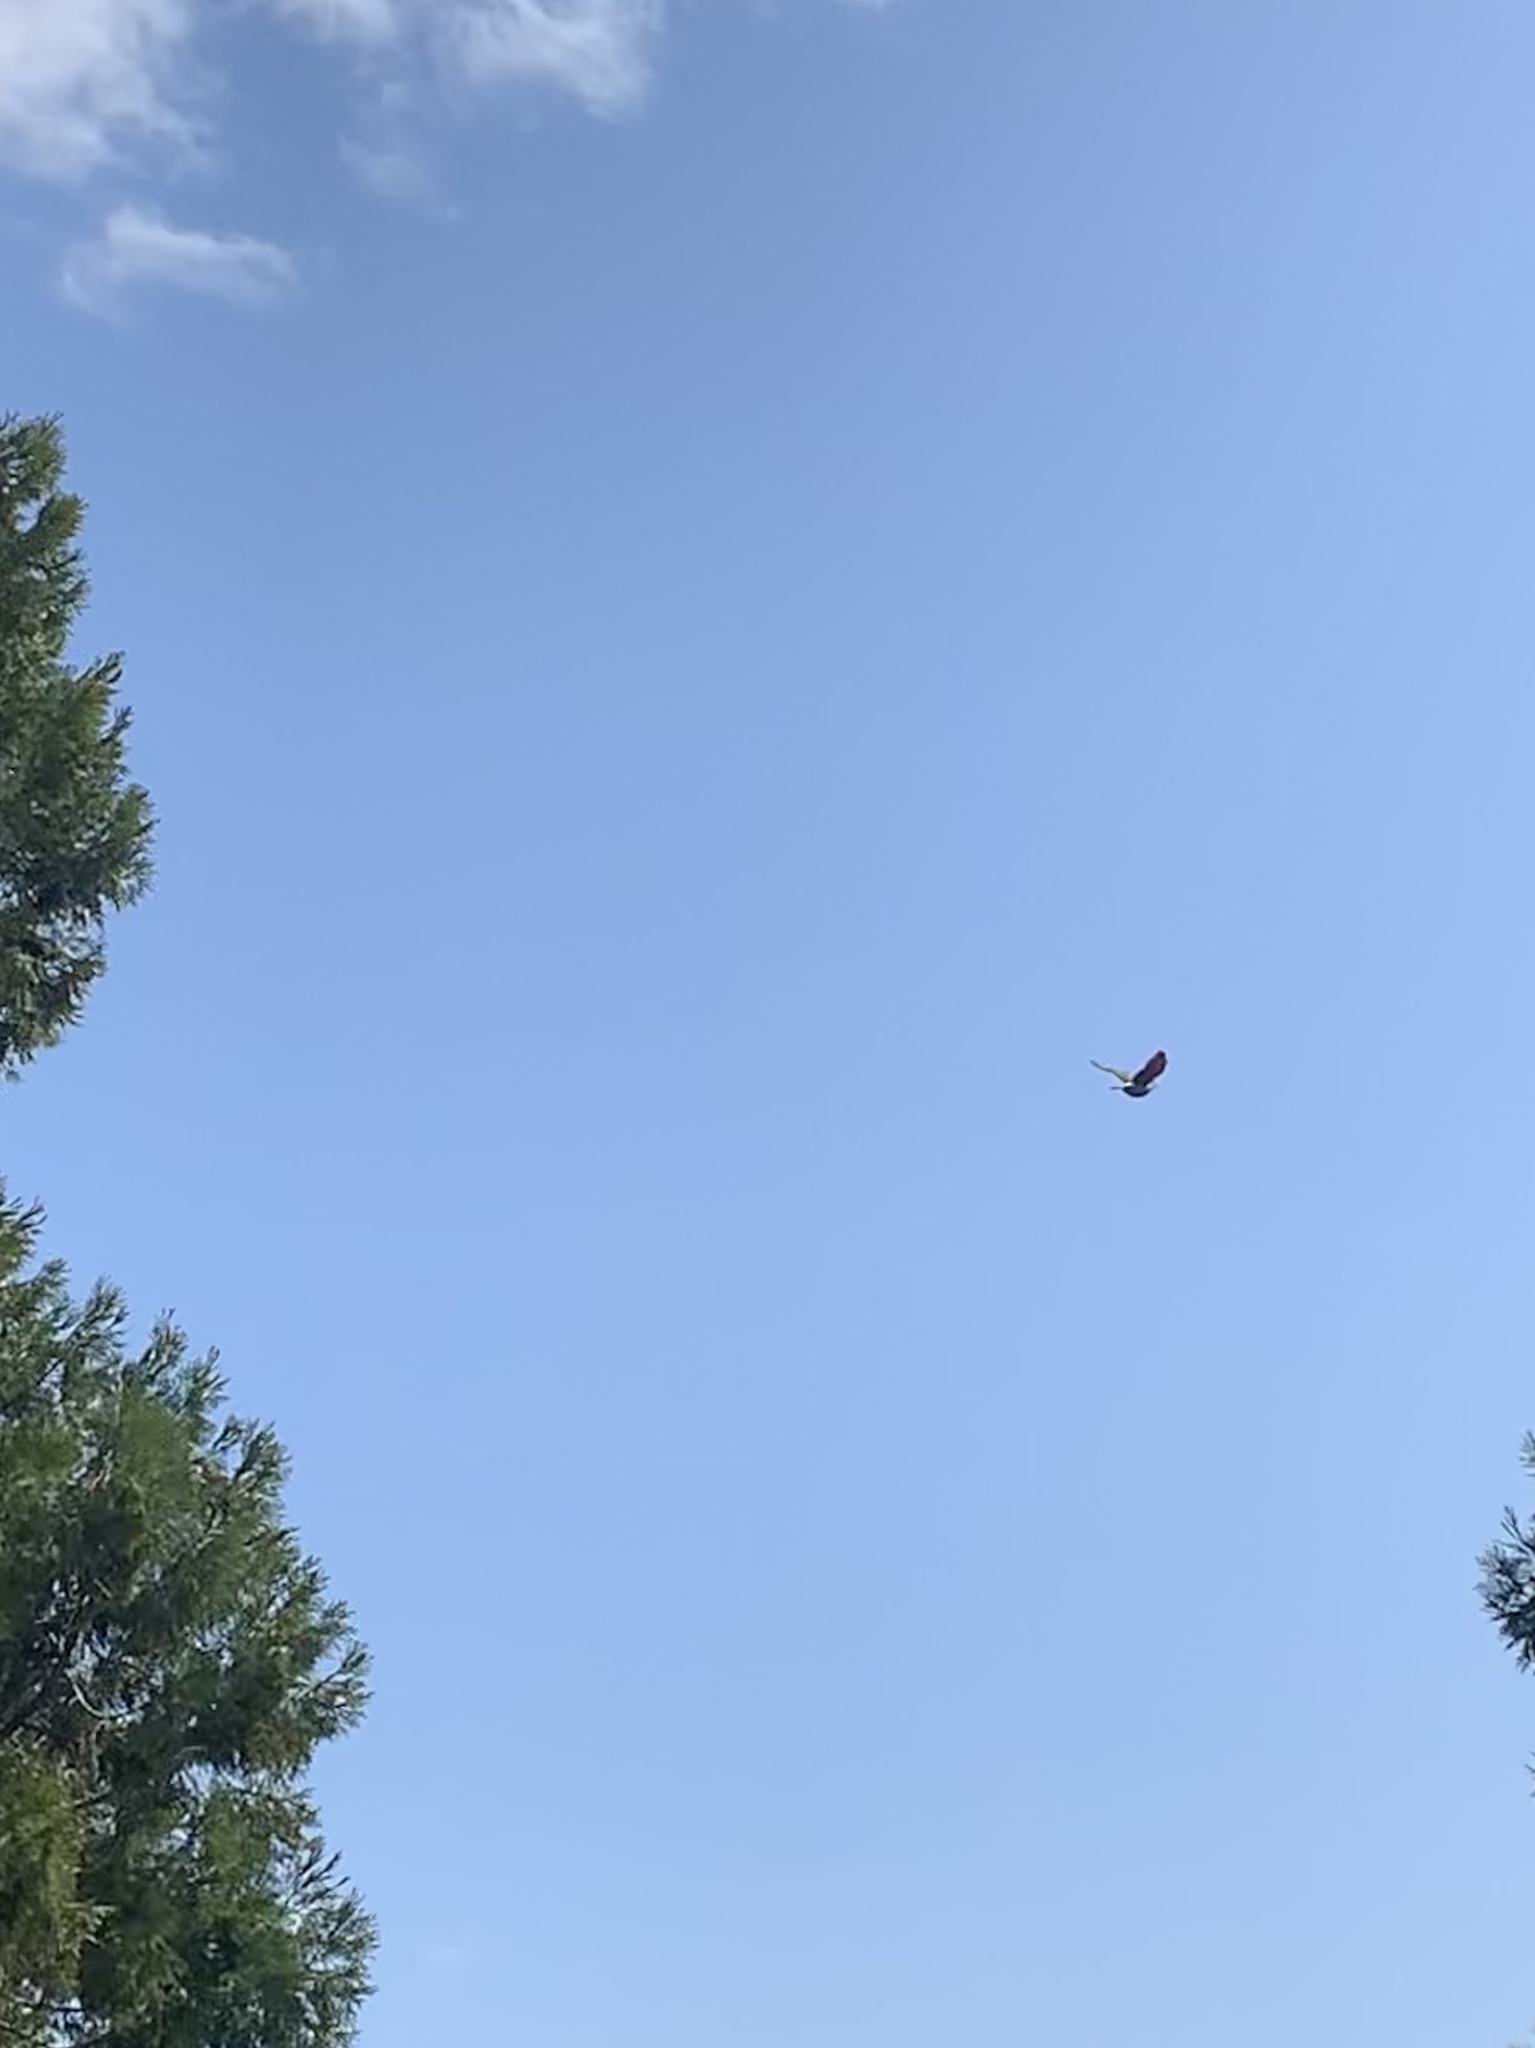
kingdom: Animalia
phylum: Chordata
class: Aves
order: Piciformes
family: Picidae
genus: Colaptes
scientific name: Colaptes auratus
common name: Northern flicker
